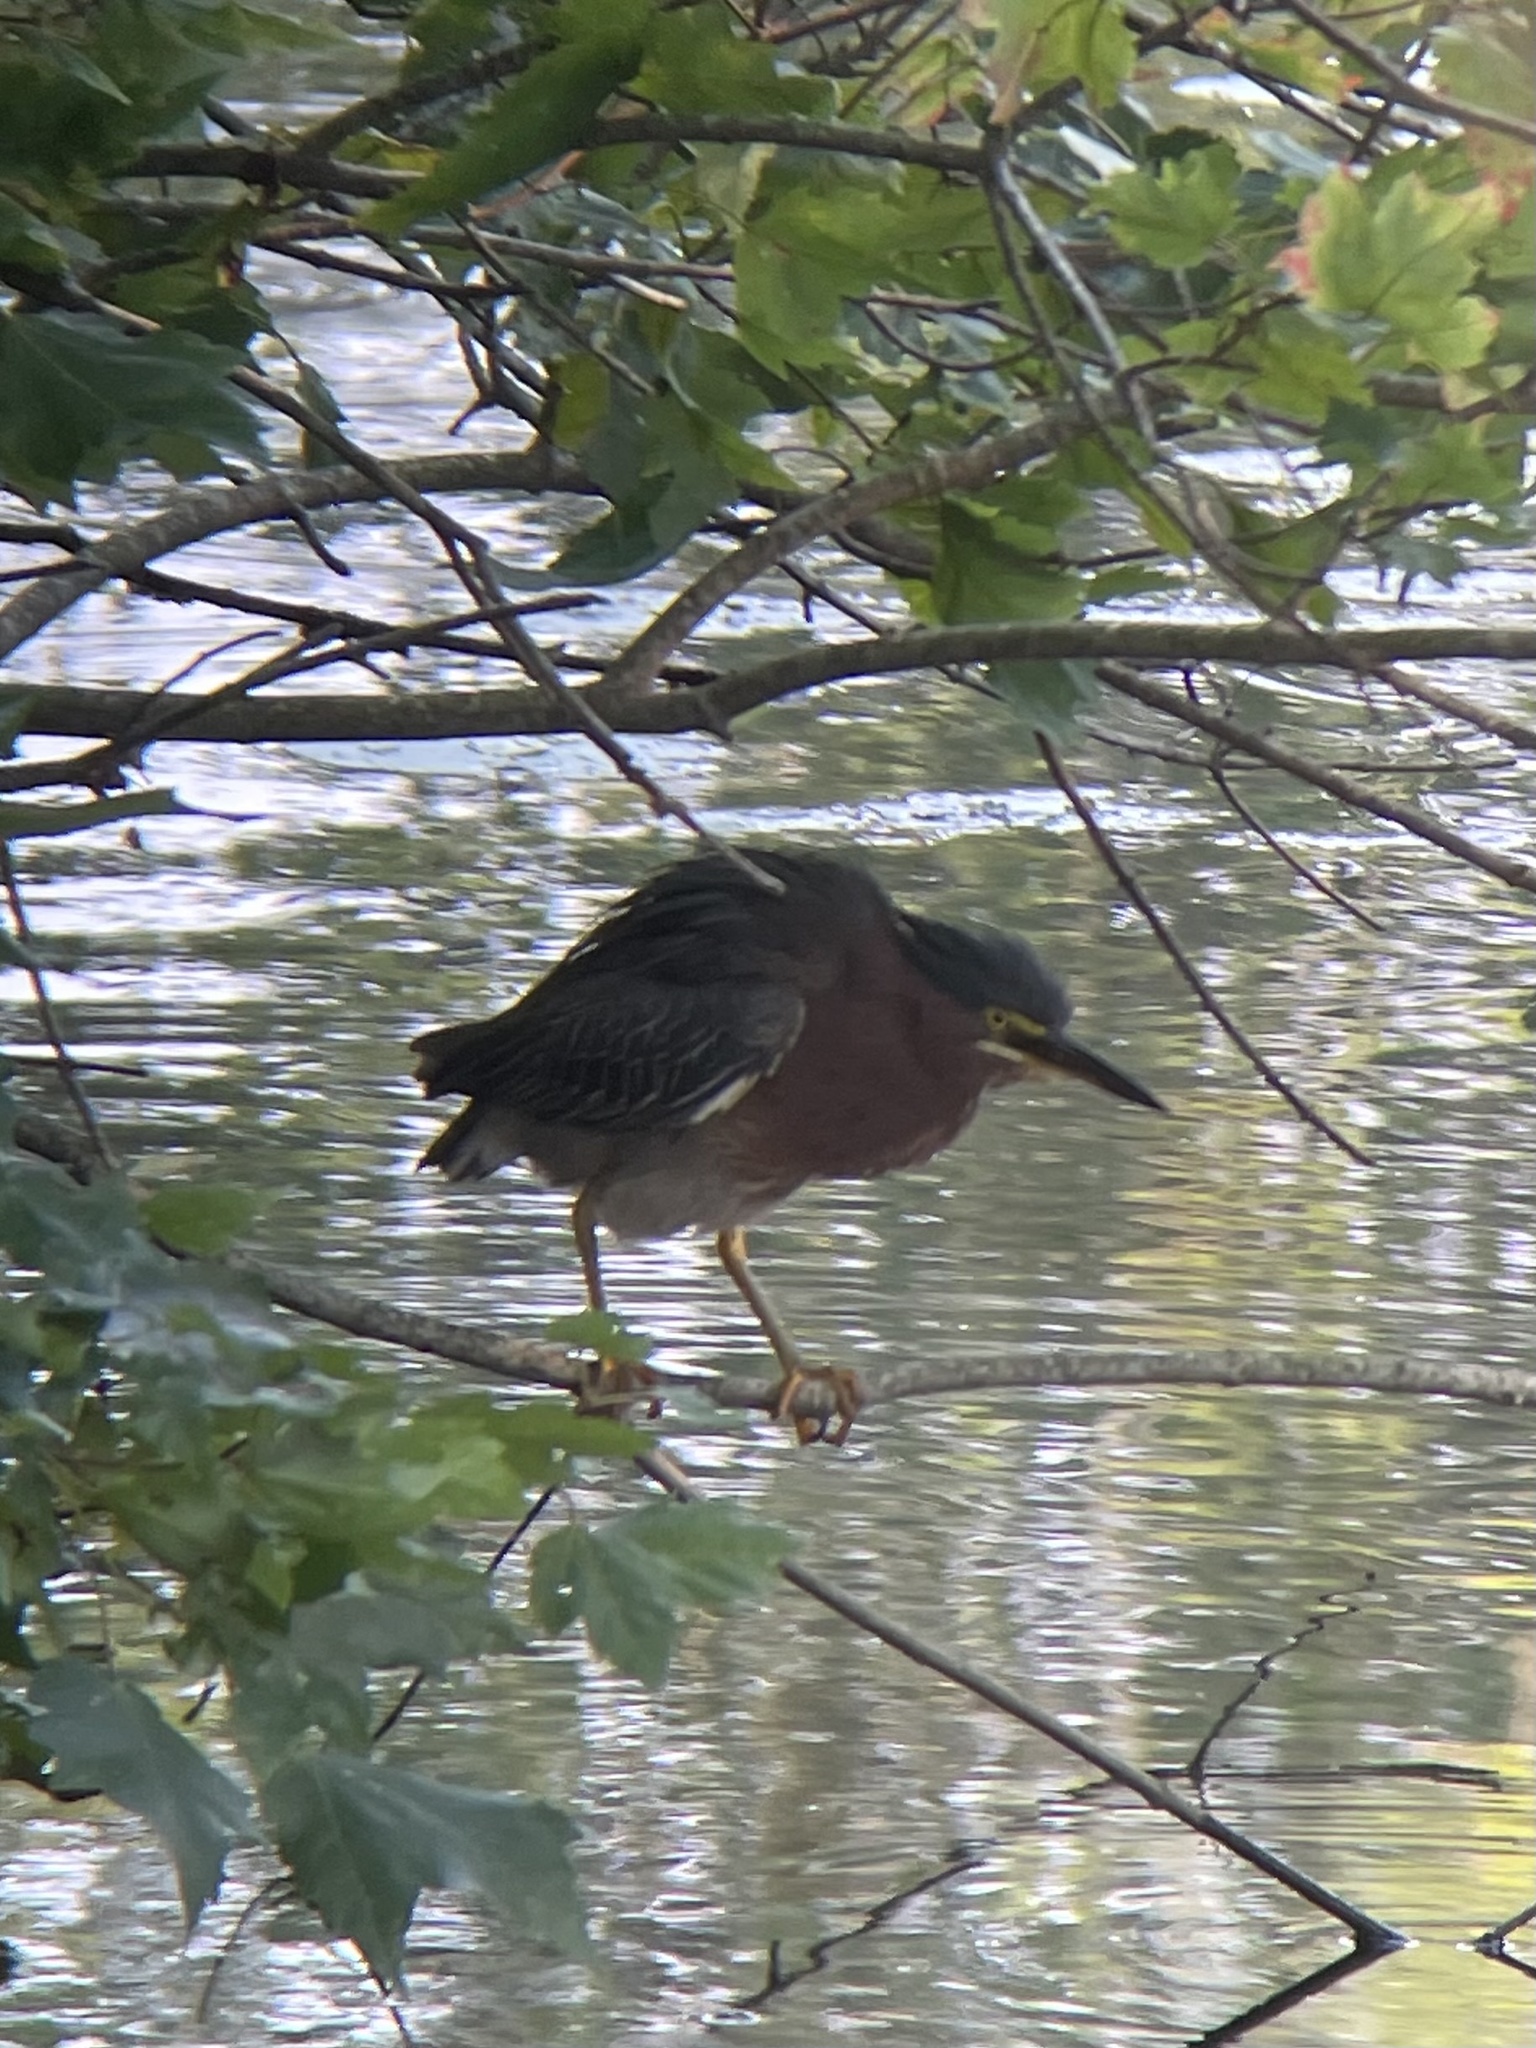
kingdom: Animalia
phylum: Chordata
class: Aves
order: Pelecaniformes
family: Ardeidae
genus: Butorides
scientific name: Butorides virescens
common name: Green heron
